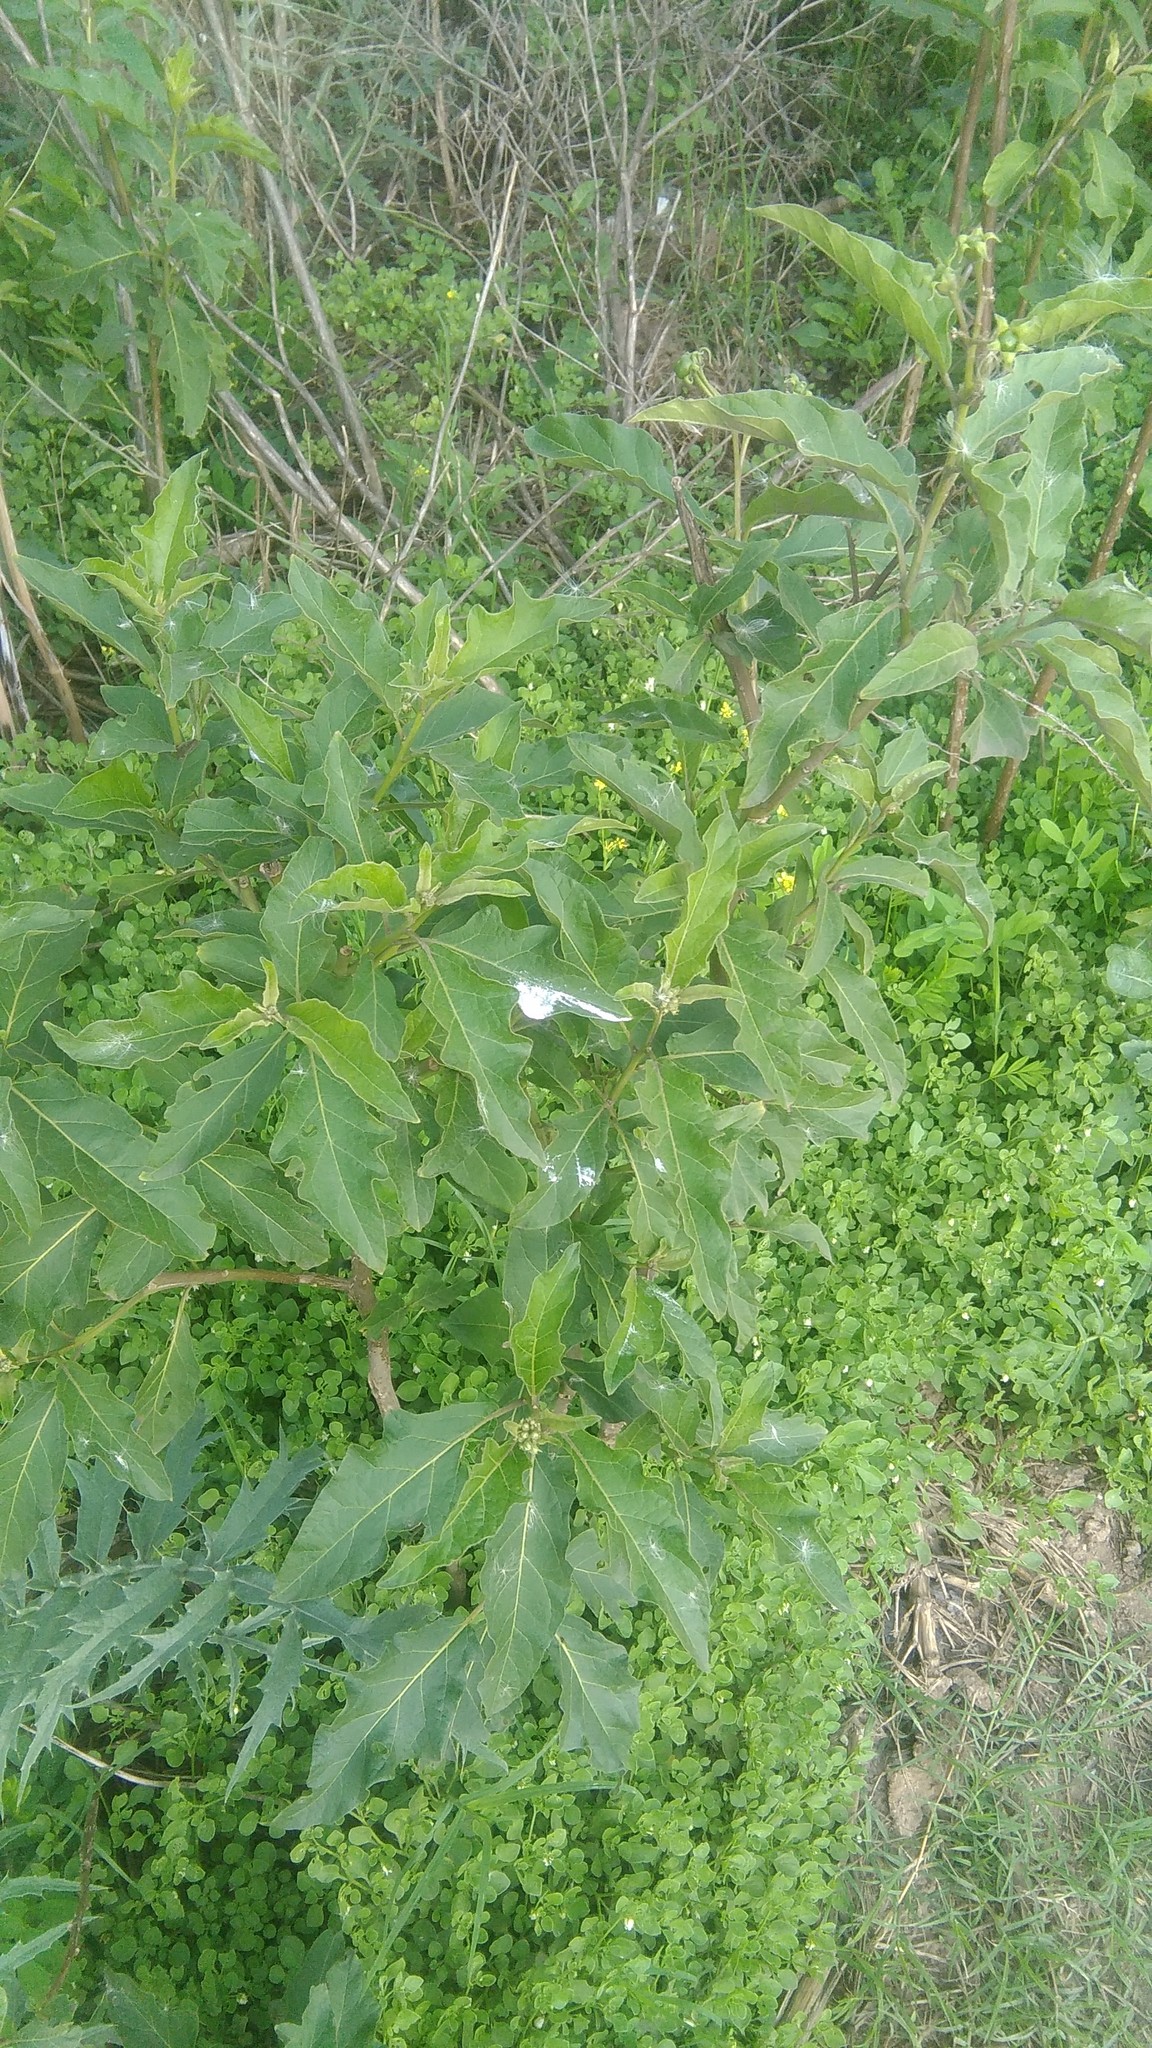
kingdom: Plantae
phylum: Tracheophyta
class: Magnoliopsida
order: Solanales
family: Solanaceae
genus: Solanum
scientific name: Solanum bonariense
